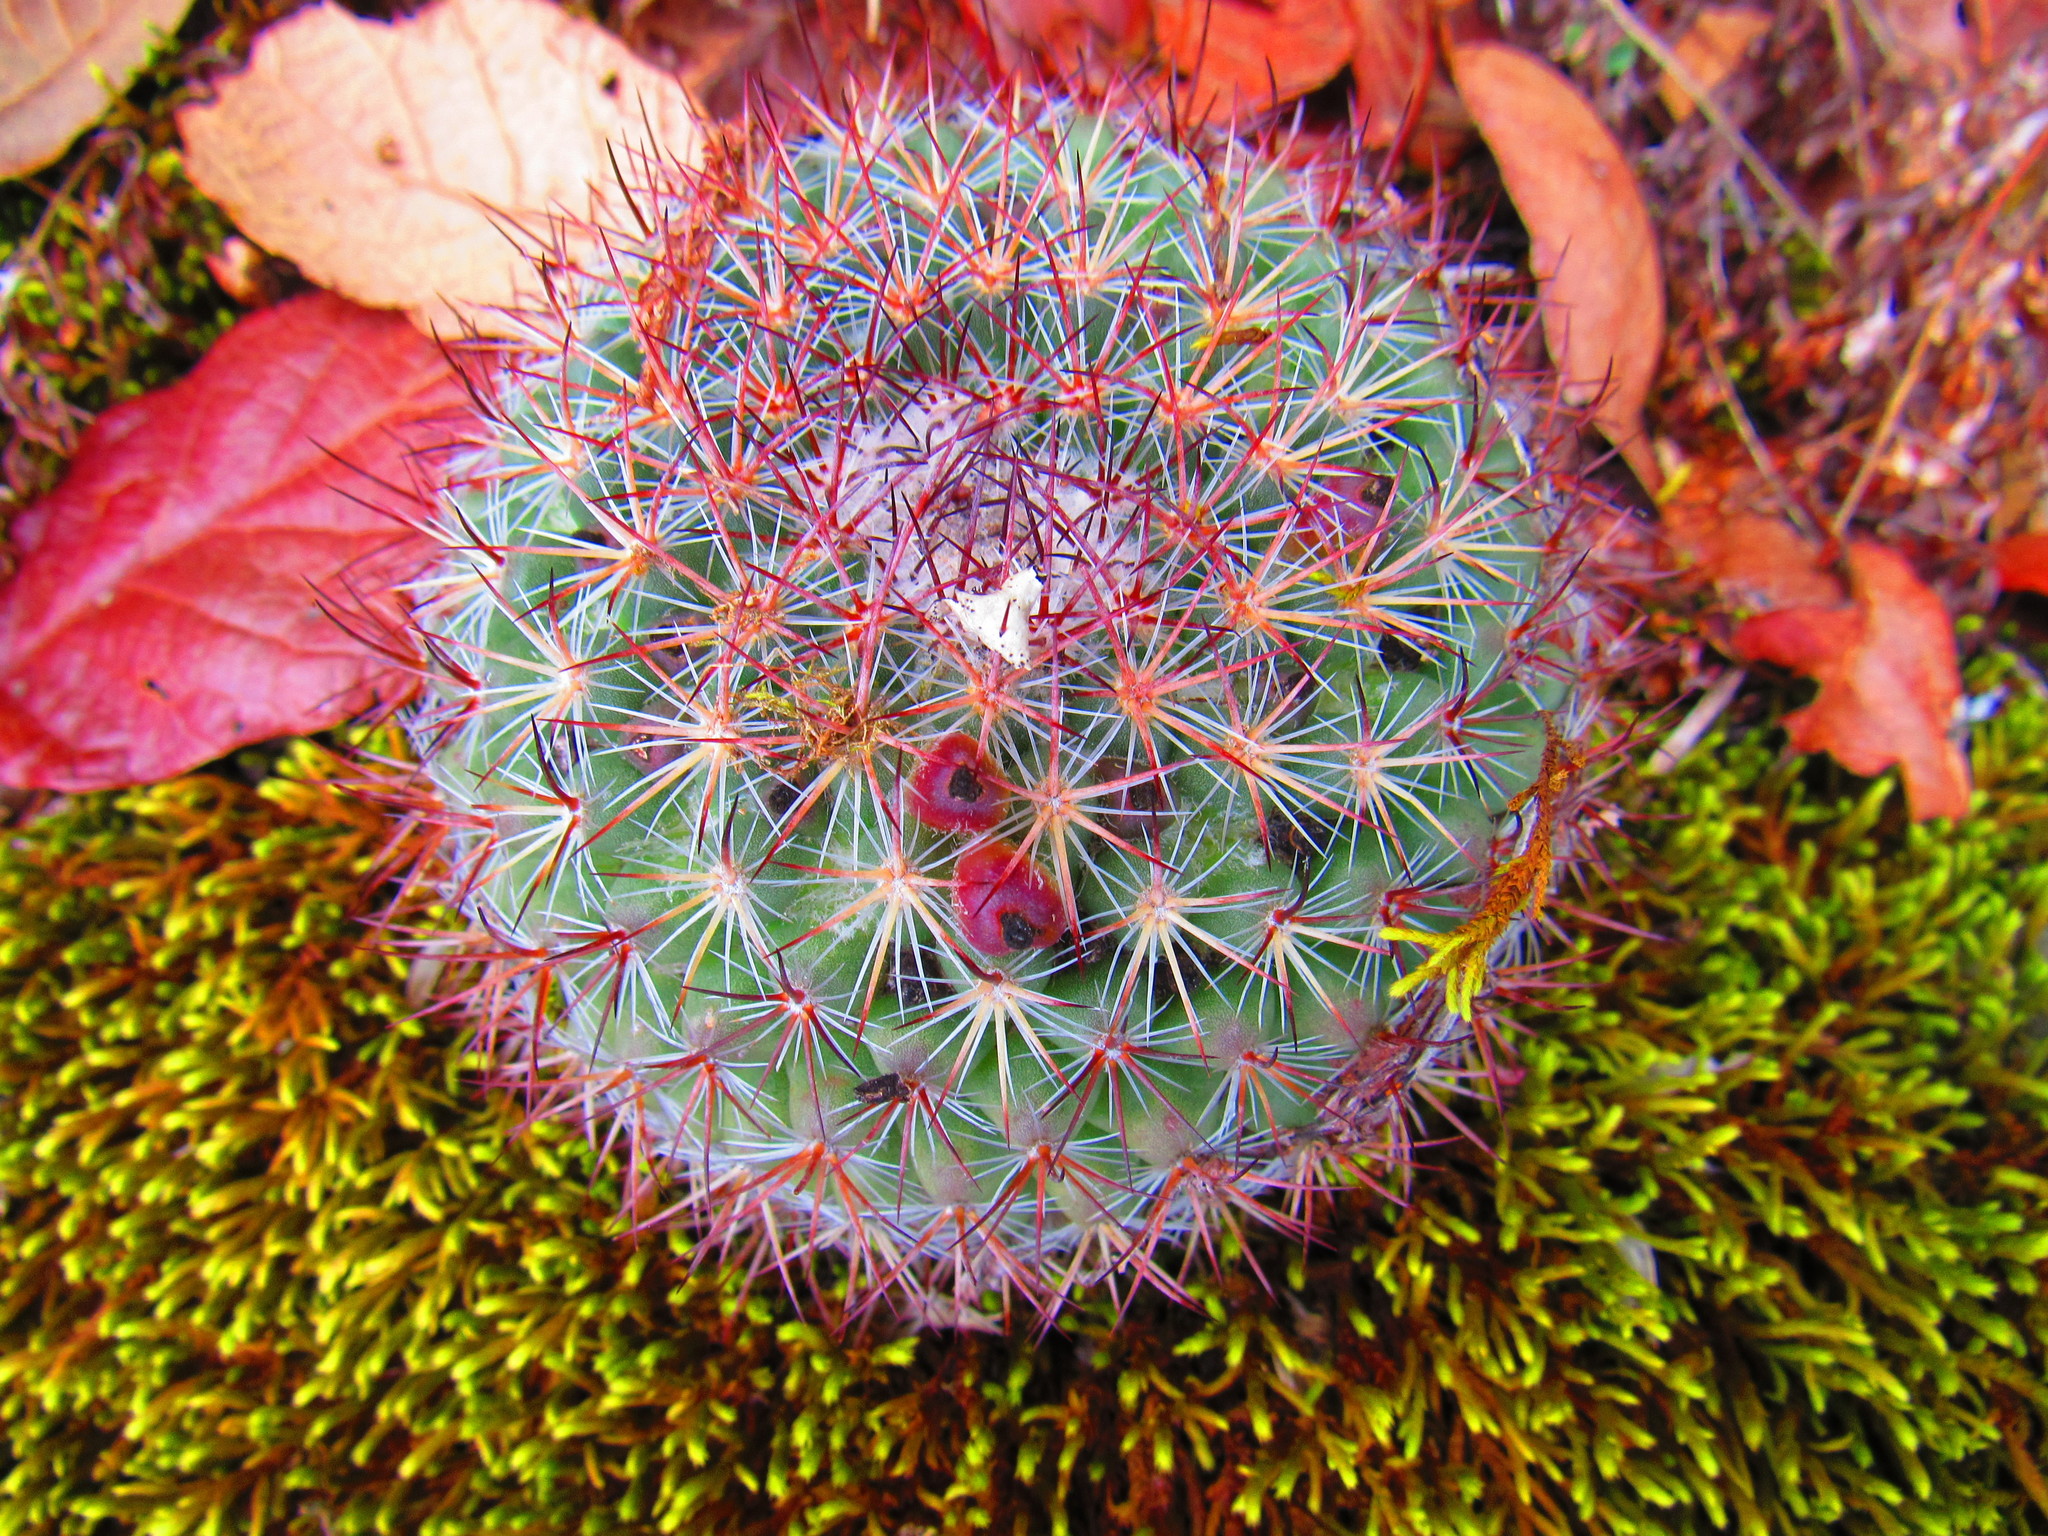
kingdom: Plantae
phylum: Tracheophyta
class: Magnoliopsida
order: Caryophyllales
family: Cactaceae
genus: Mammillaria
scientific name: Mammillaria rhodantha
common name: Rainbow pincushion
